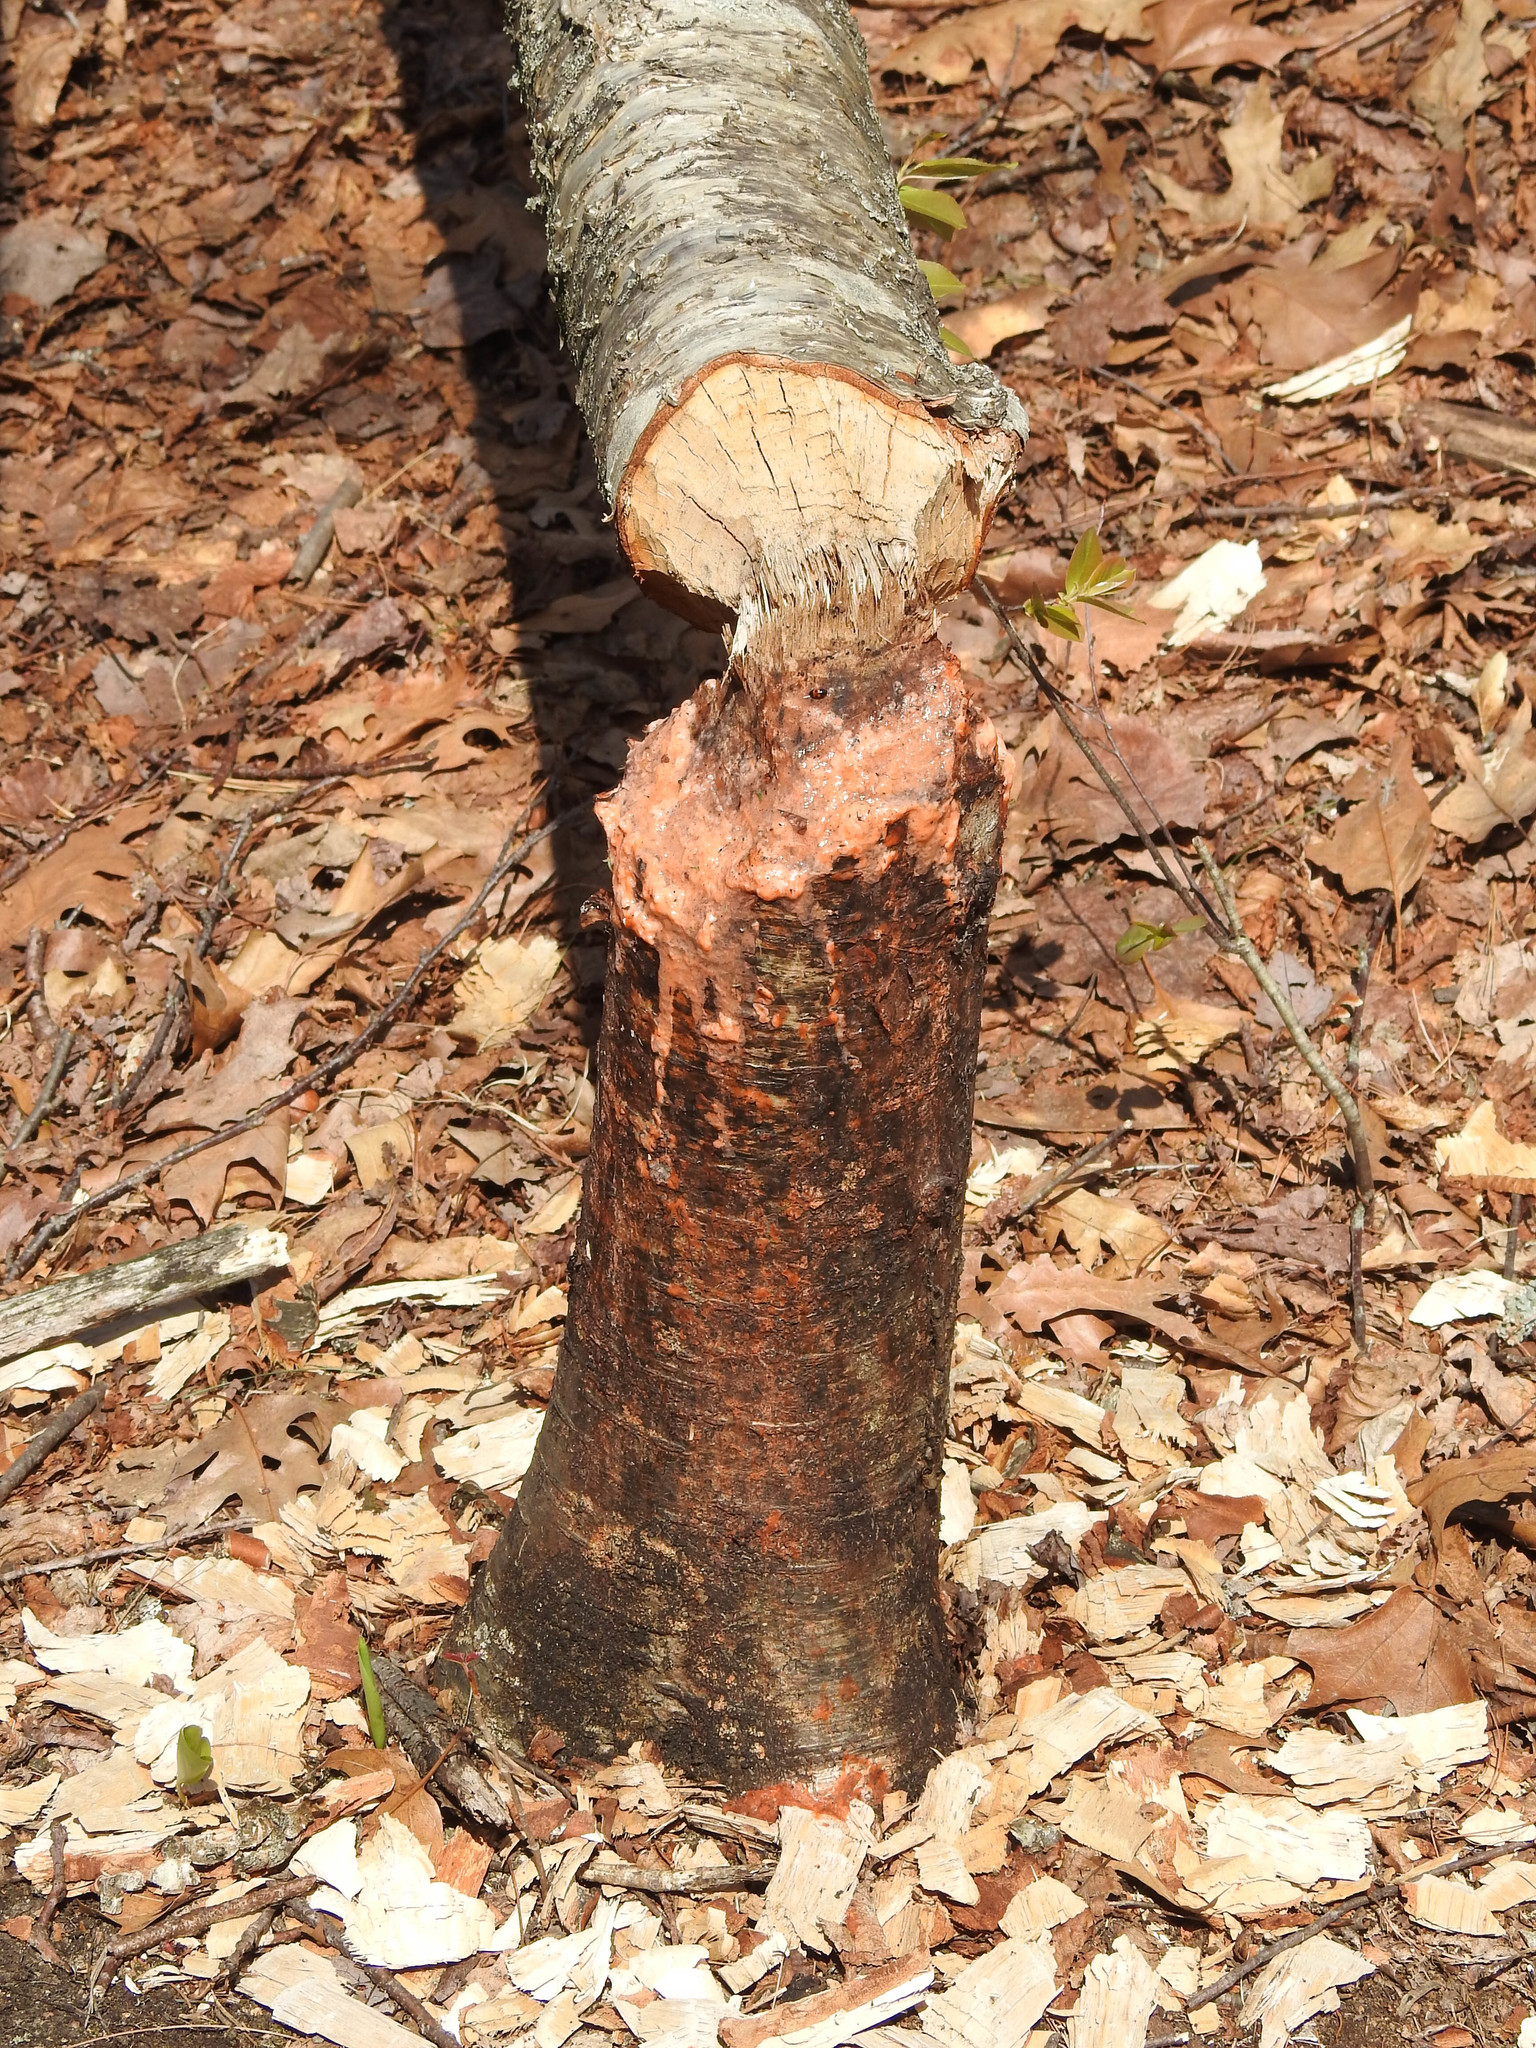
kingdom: Animalia
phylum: Chordata
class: Mammalia
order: Rodentia
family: Castoridae
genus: Castor
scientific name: Castor canadensis
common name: American beaver
